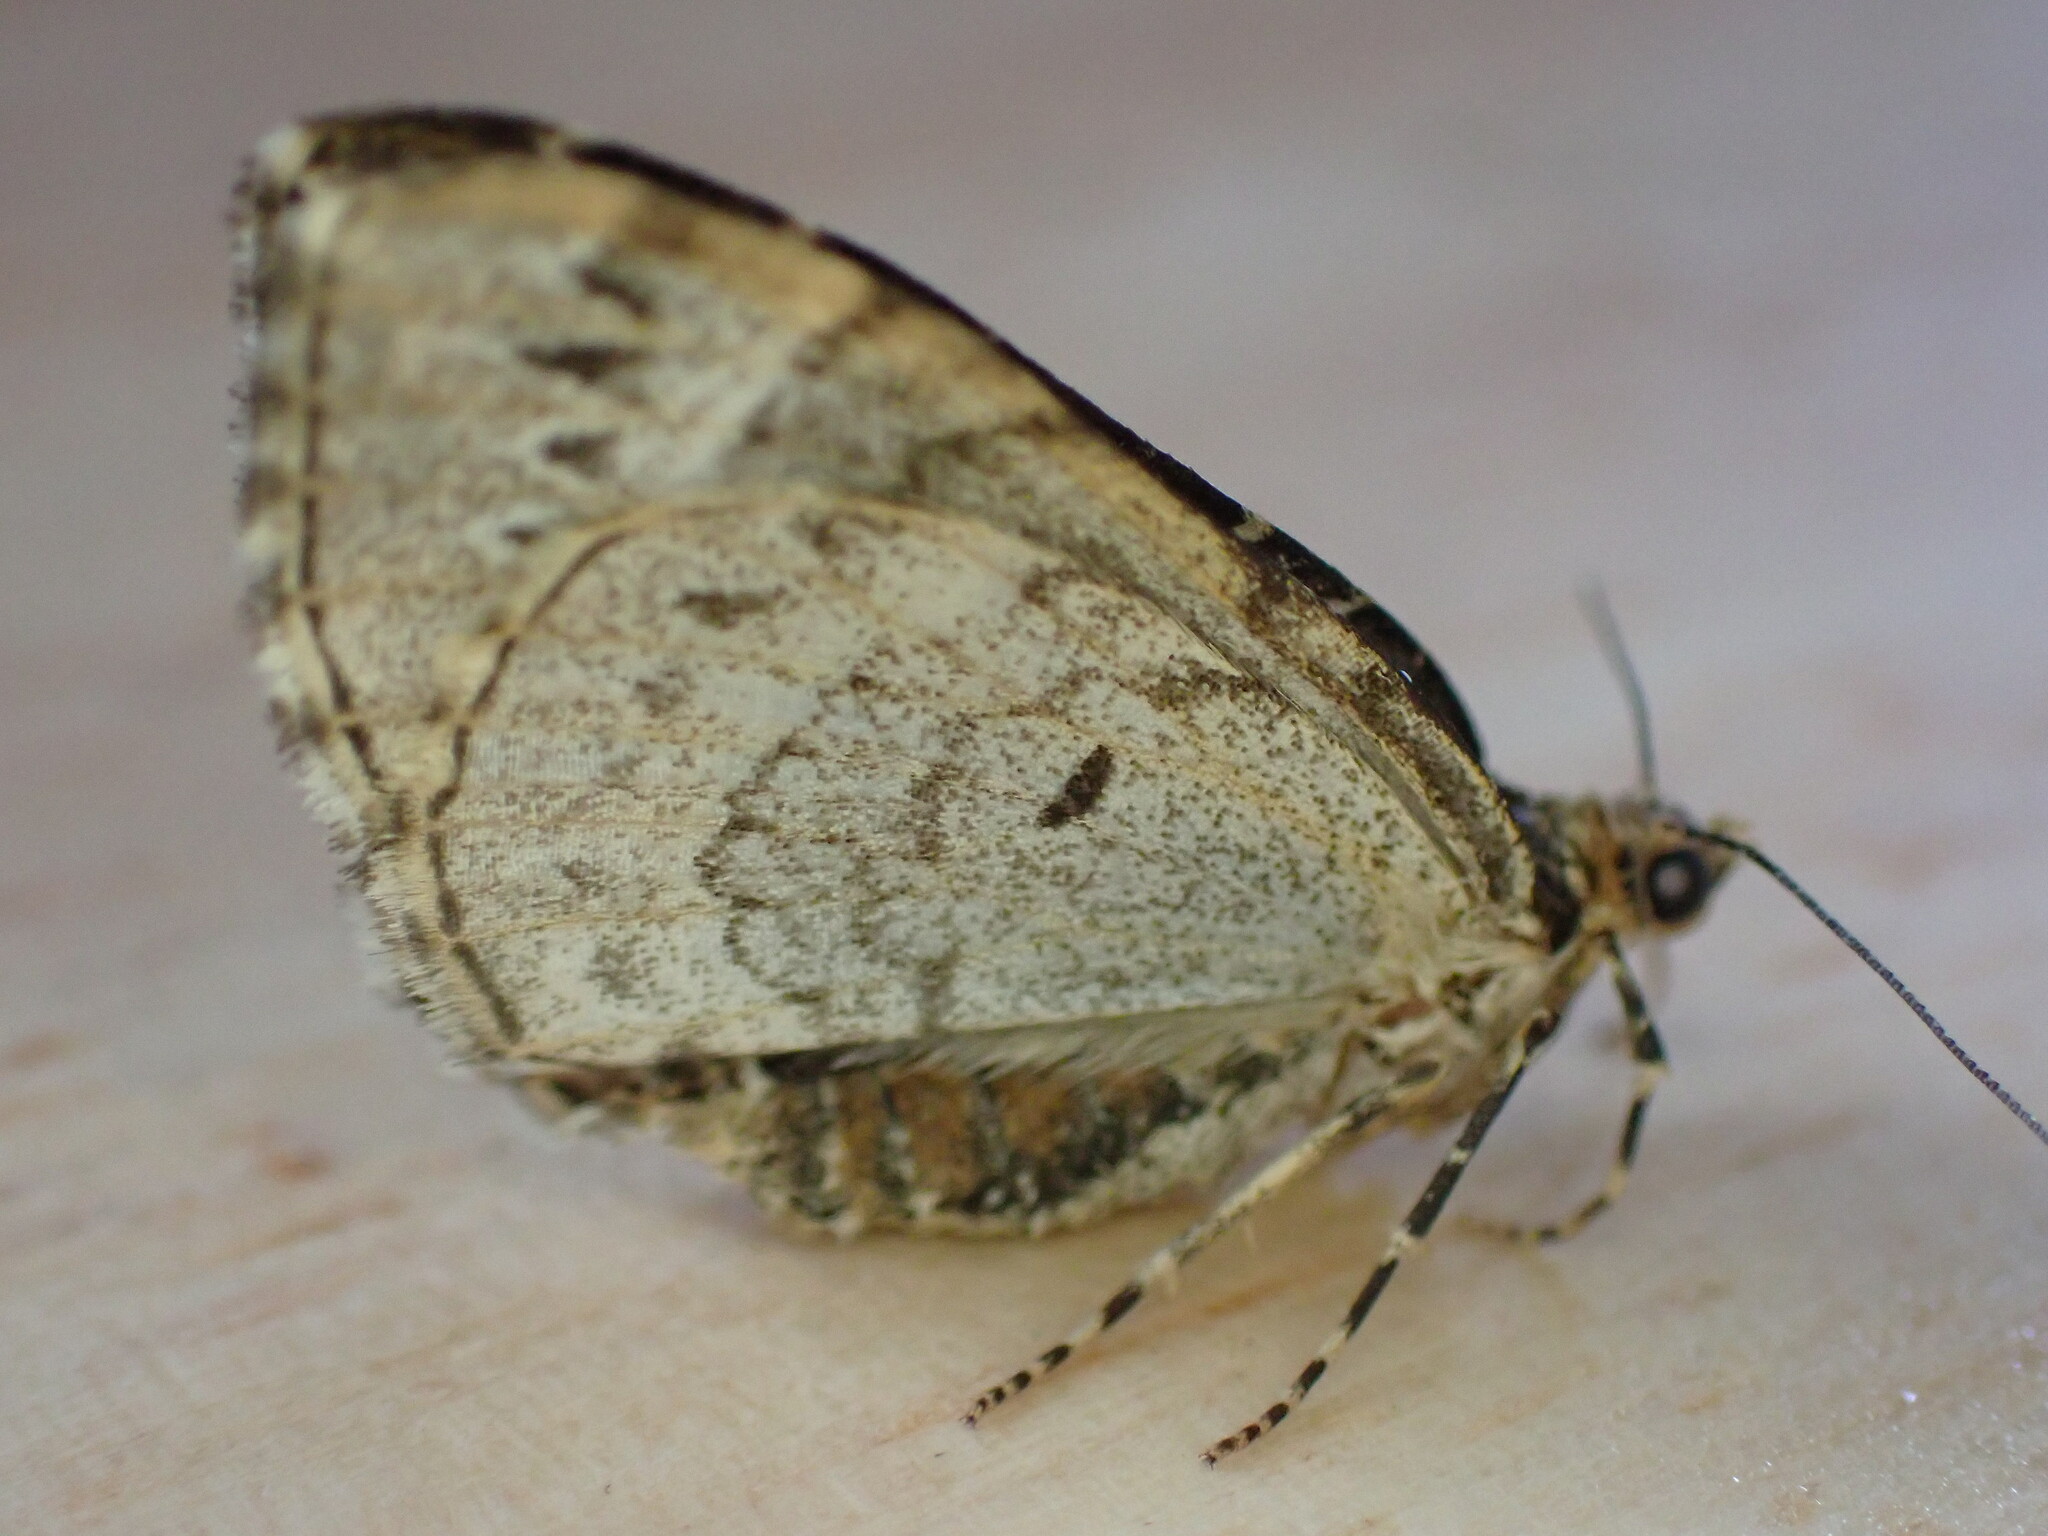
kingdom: Animalia
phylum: Arthropoda
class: Insecta
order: Lepidoptera
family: Geometridae
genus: Ecliptopera
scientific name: Ecliptopera silaceata
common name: Small phoenix
